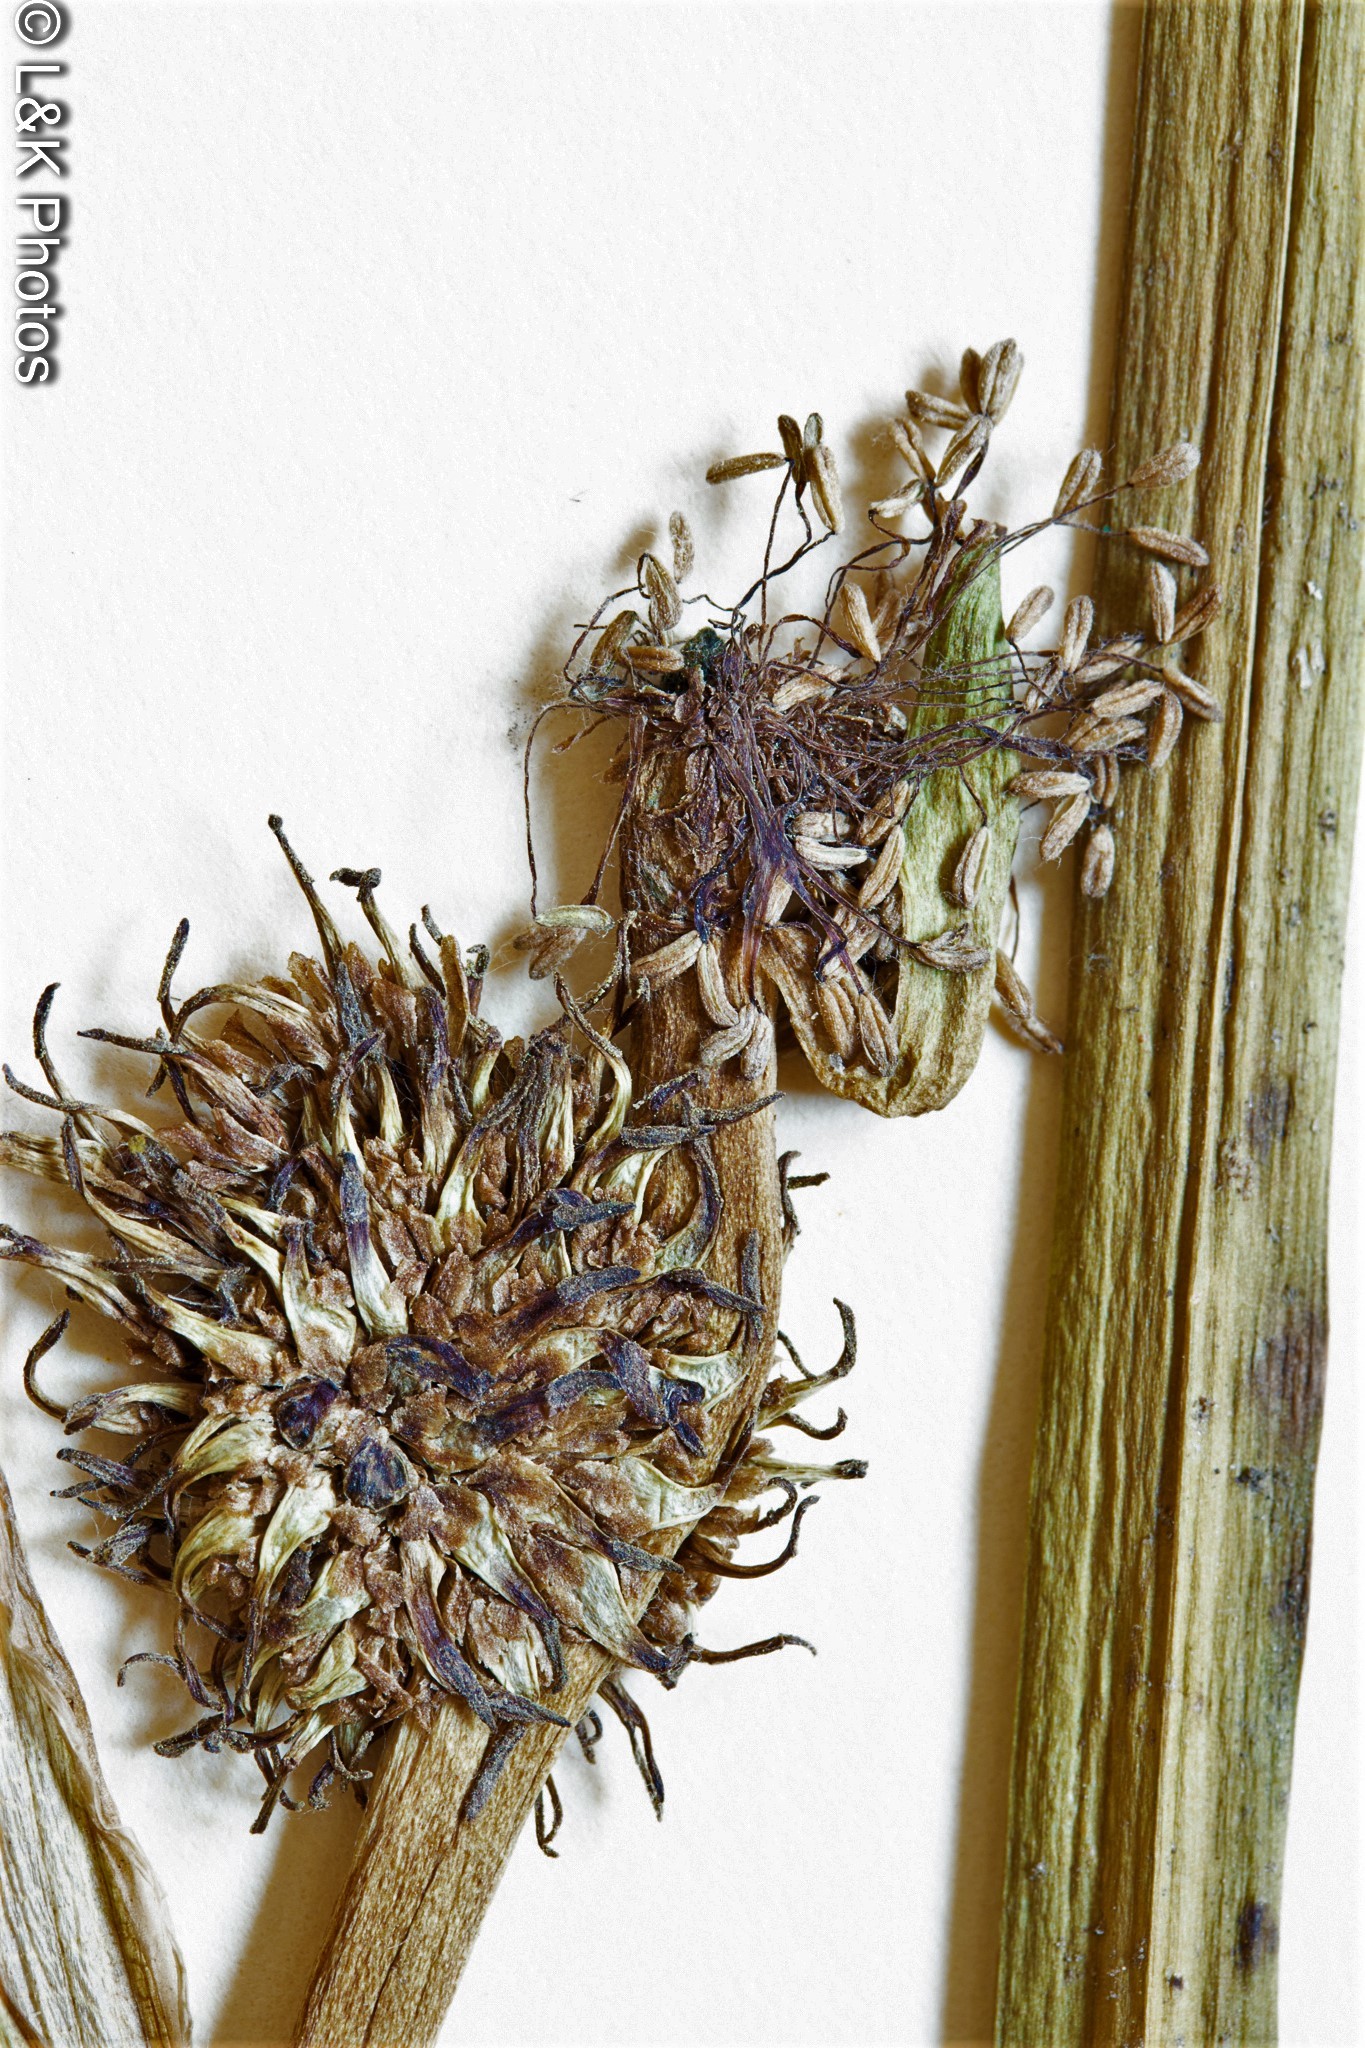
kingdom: Plantae
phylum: Tracheophyta
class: Liliopsida
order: Poales
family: Typhaceae
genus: Sparganium
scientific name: Sparganium angustifolium
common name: Floating bur-reed
